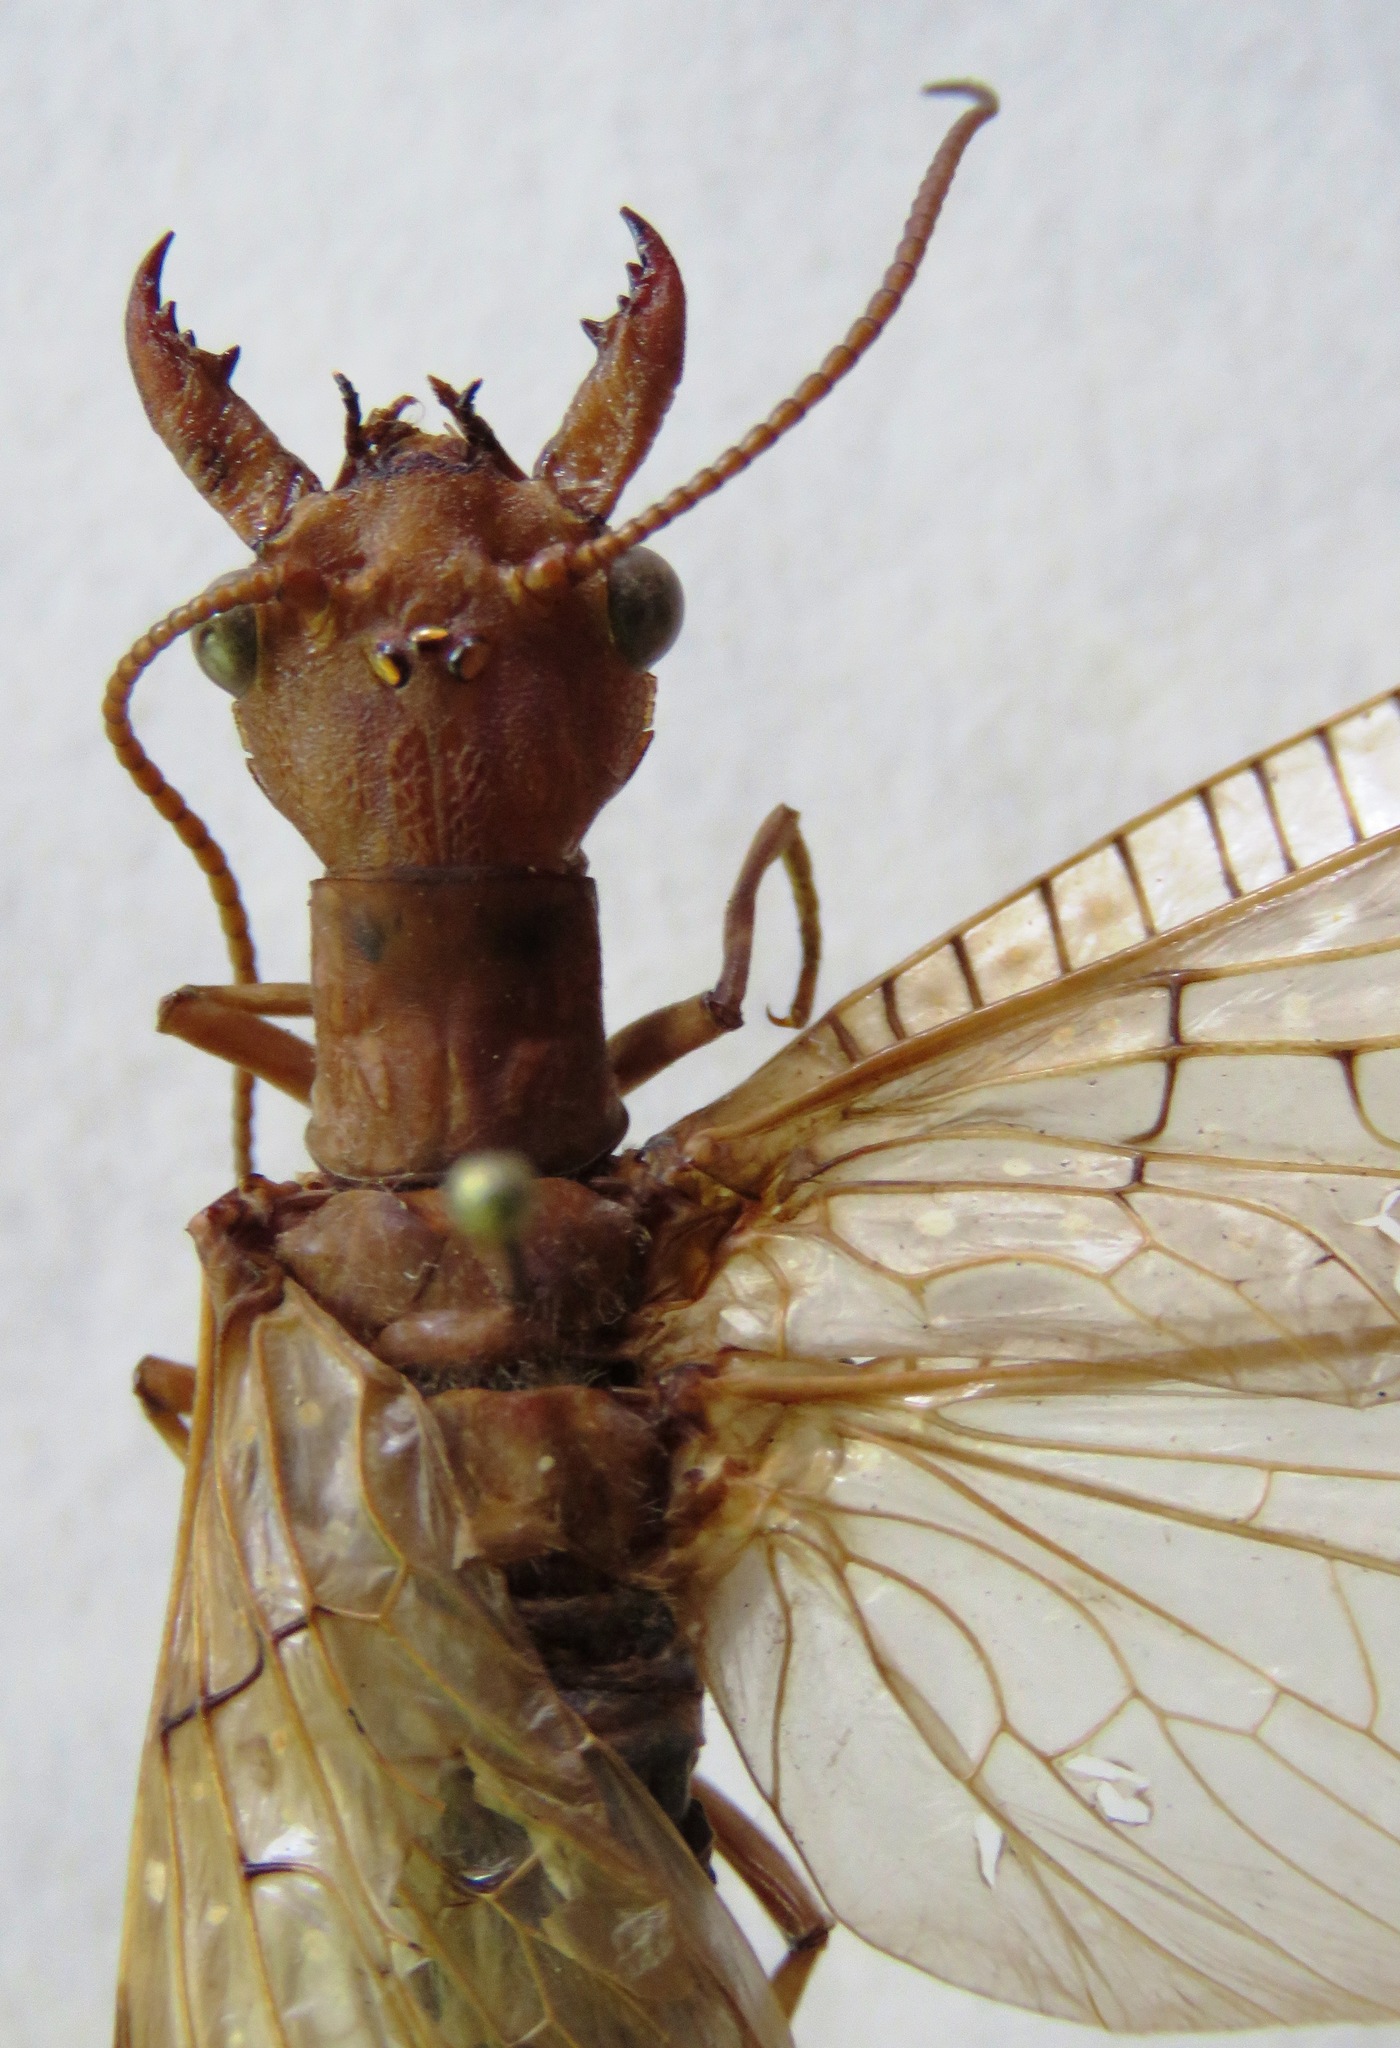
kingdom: Animalia
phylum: Arthropoda
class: Insecta
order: Megaloptera
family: Corydalidae
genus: Corydalus
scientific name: Corydalus luteus
